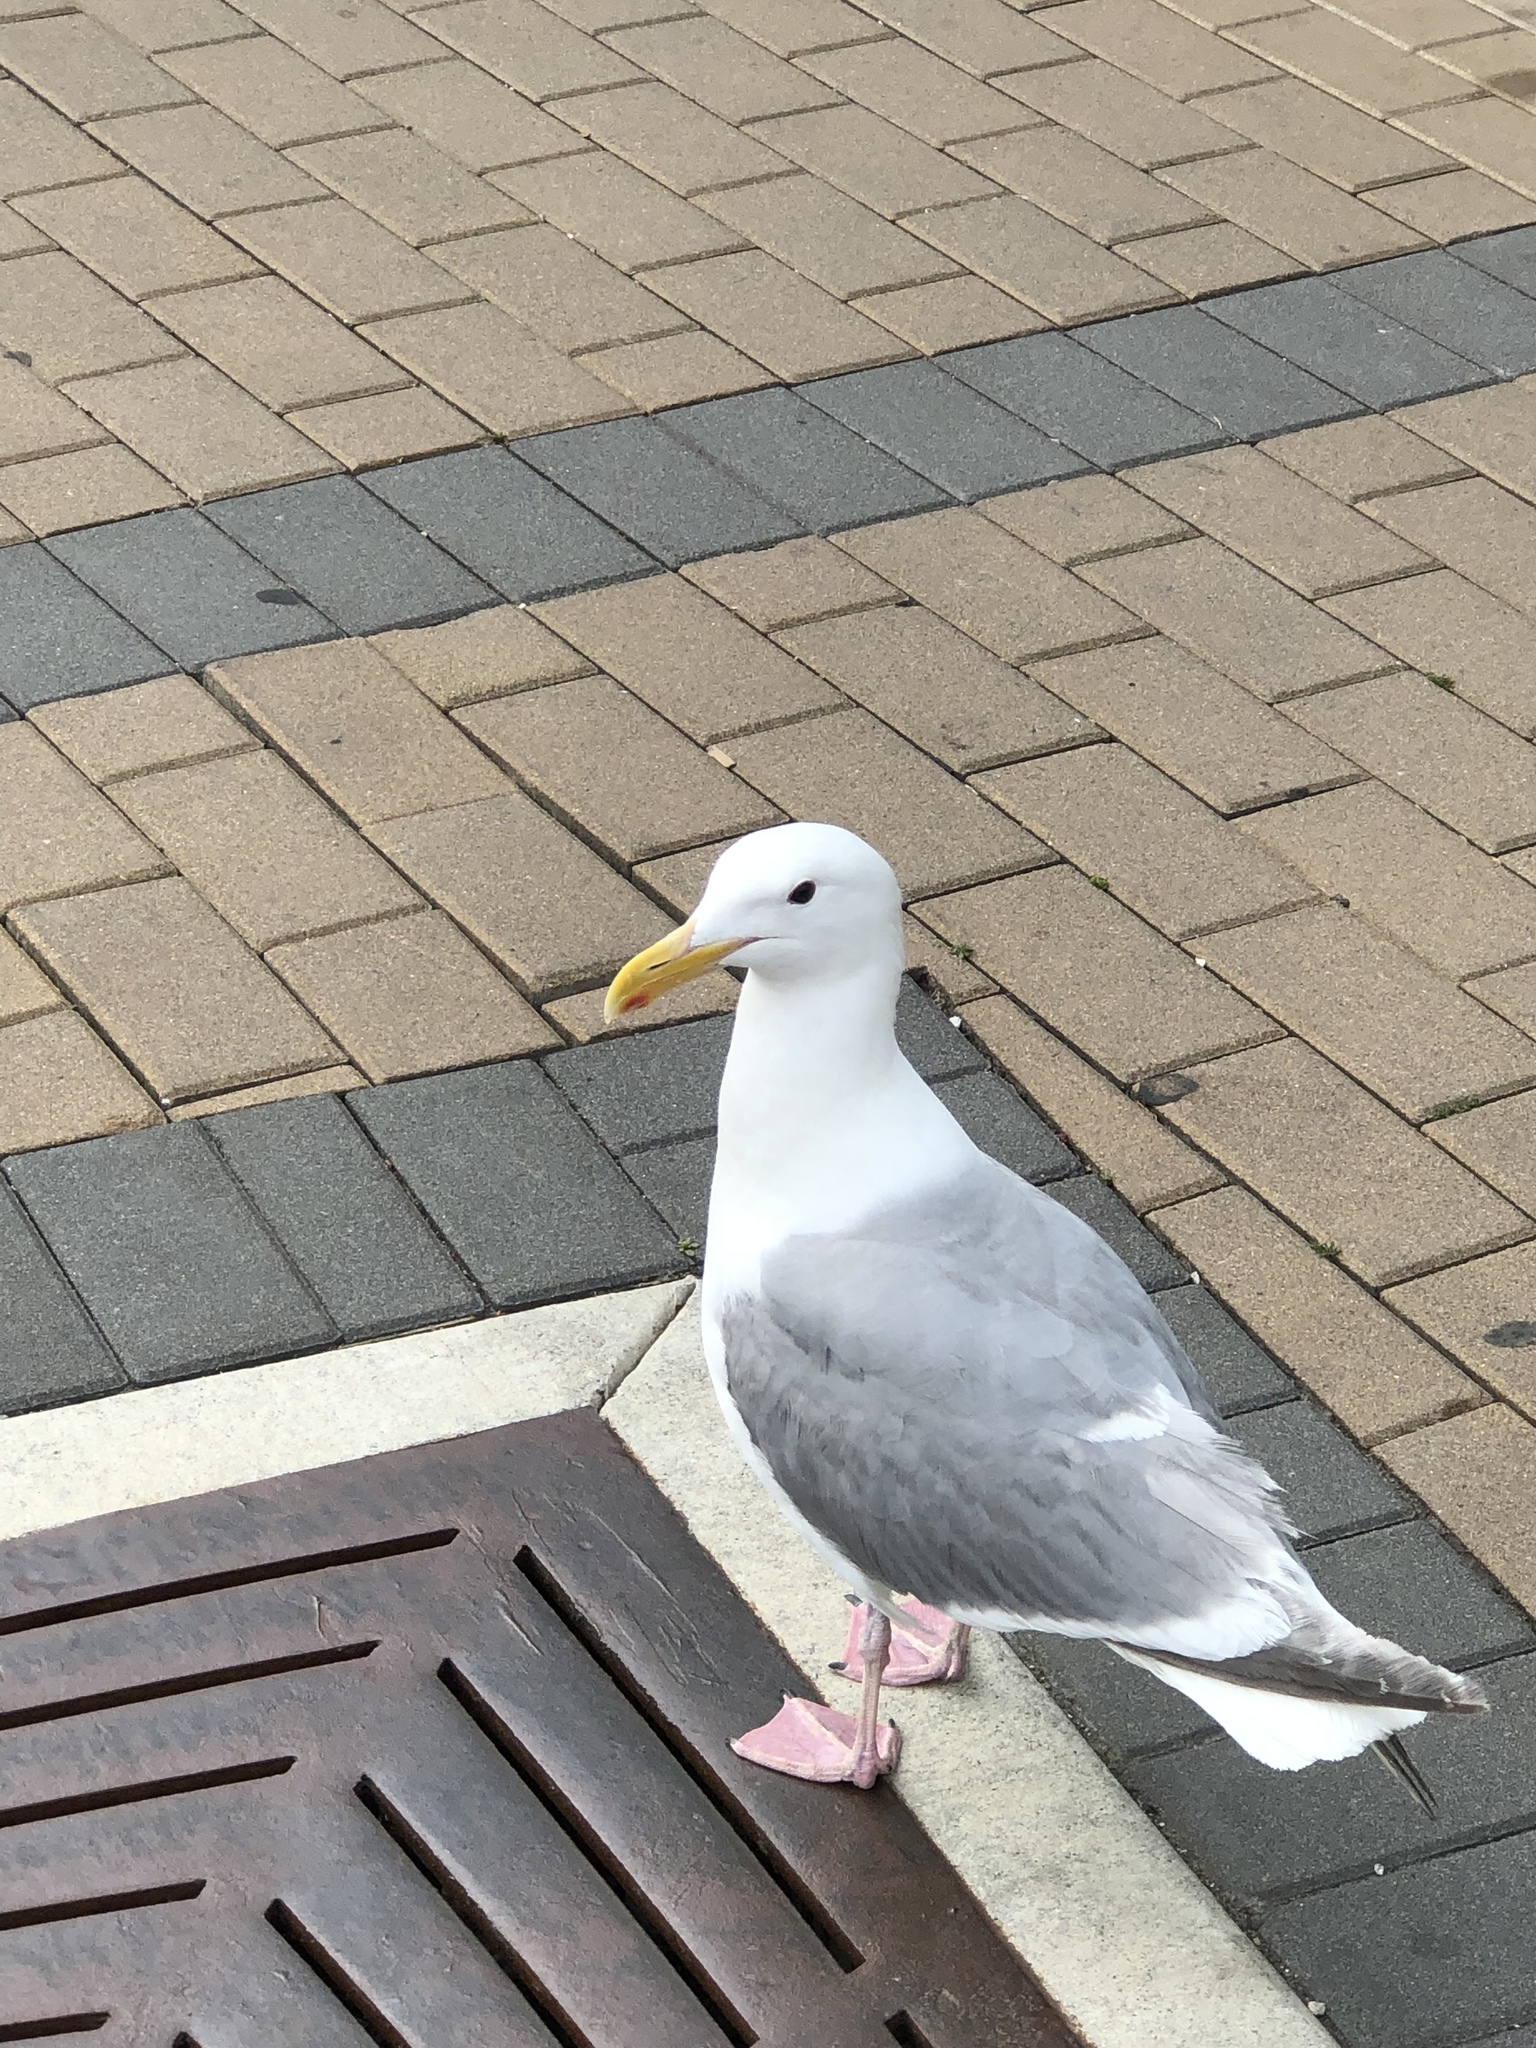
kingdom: Animalia
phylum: Chordata
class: Aves
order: Charadriiformes
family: Laridae
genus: Larus
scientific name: Larus
